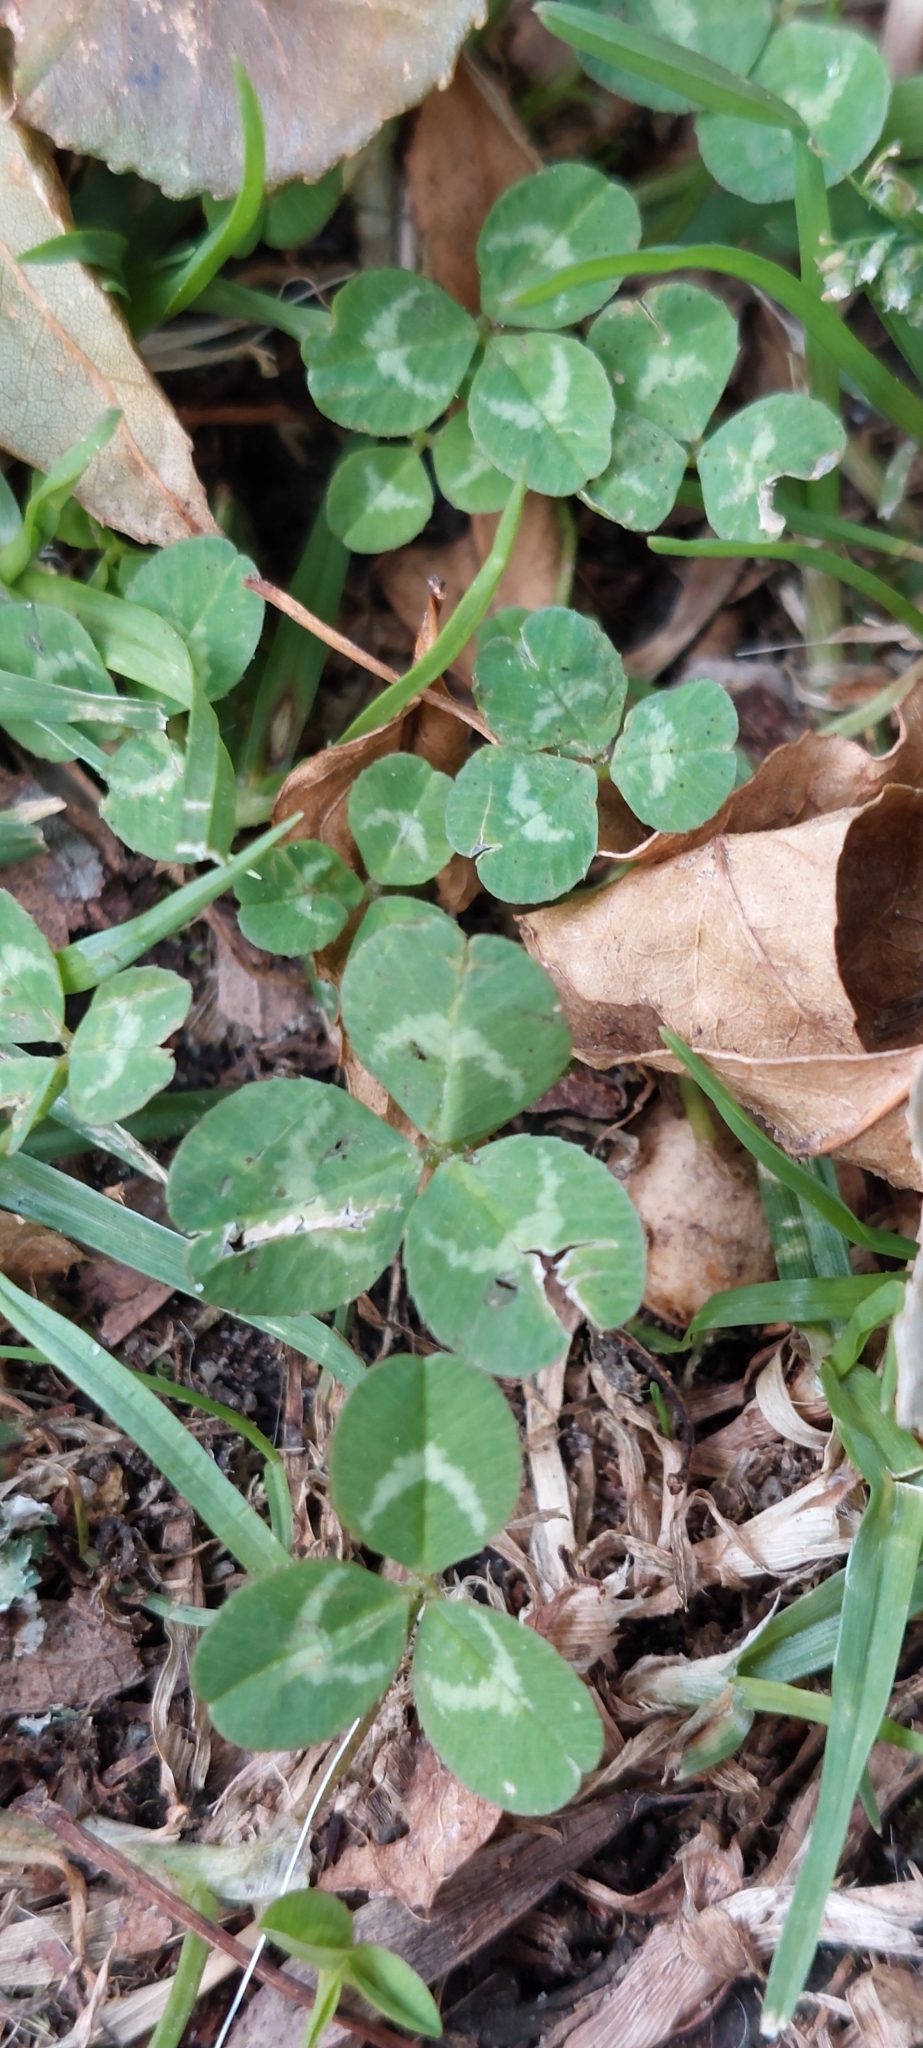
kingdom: Plantae
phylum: Tracheophyta
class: Magnoliopsida
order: Fabales
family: Fabaceae
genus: Trifolium
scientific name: Trifolium repens
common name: White clover
